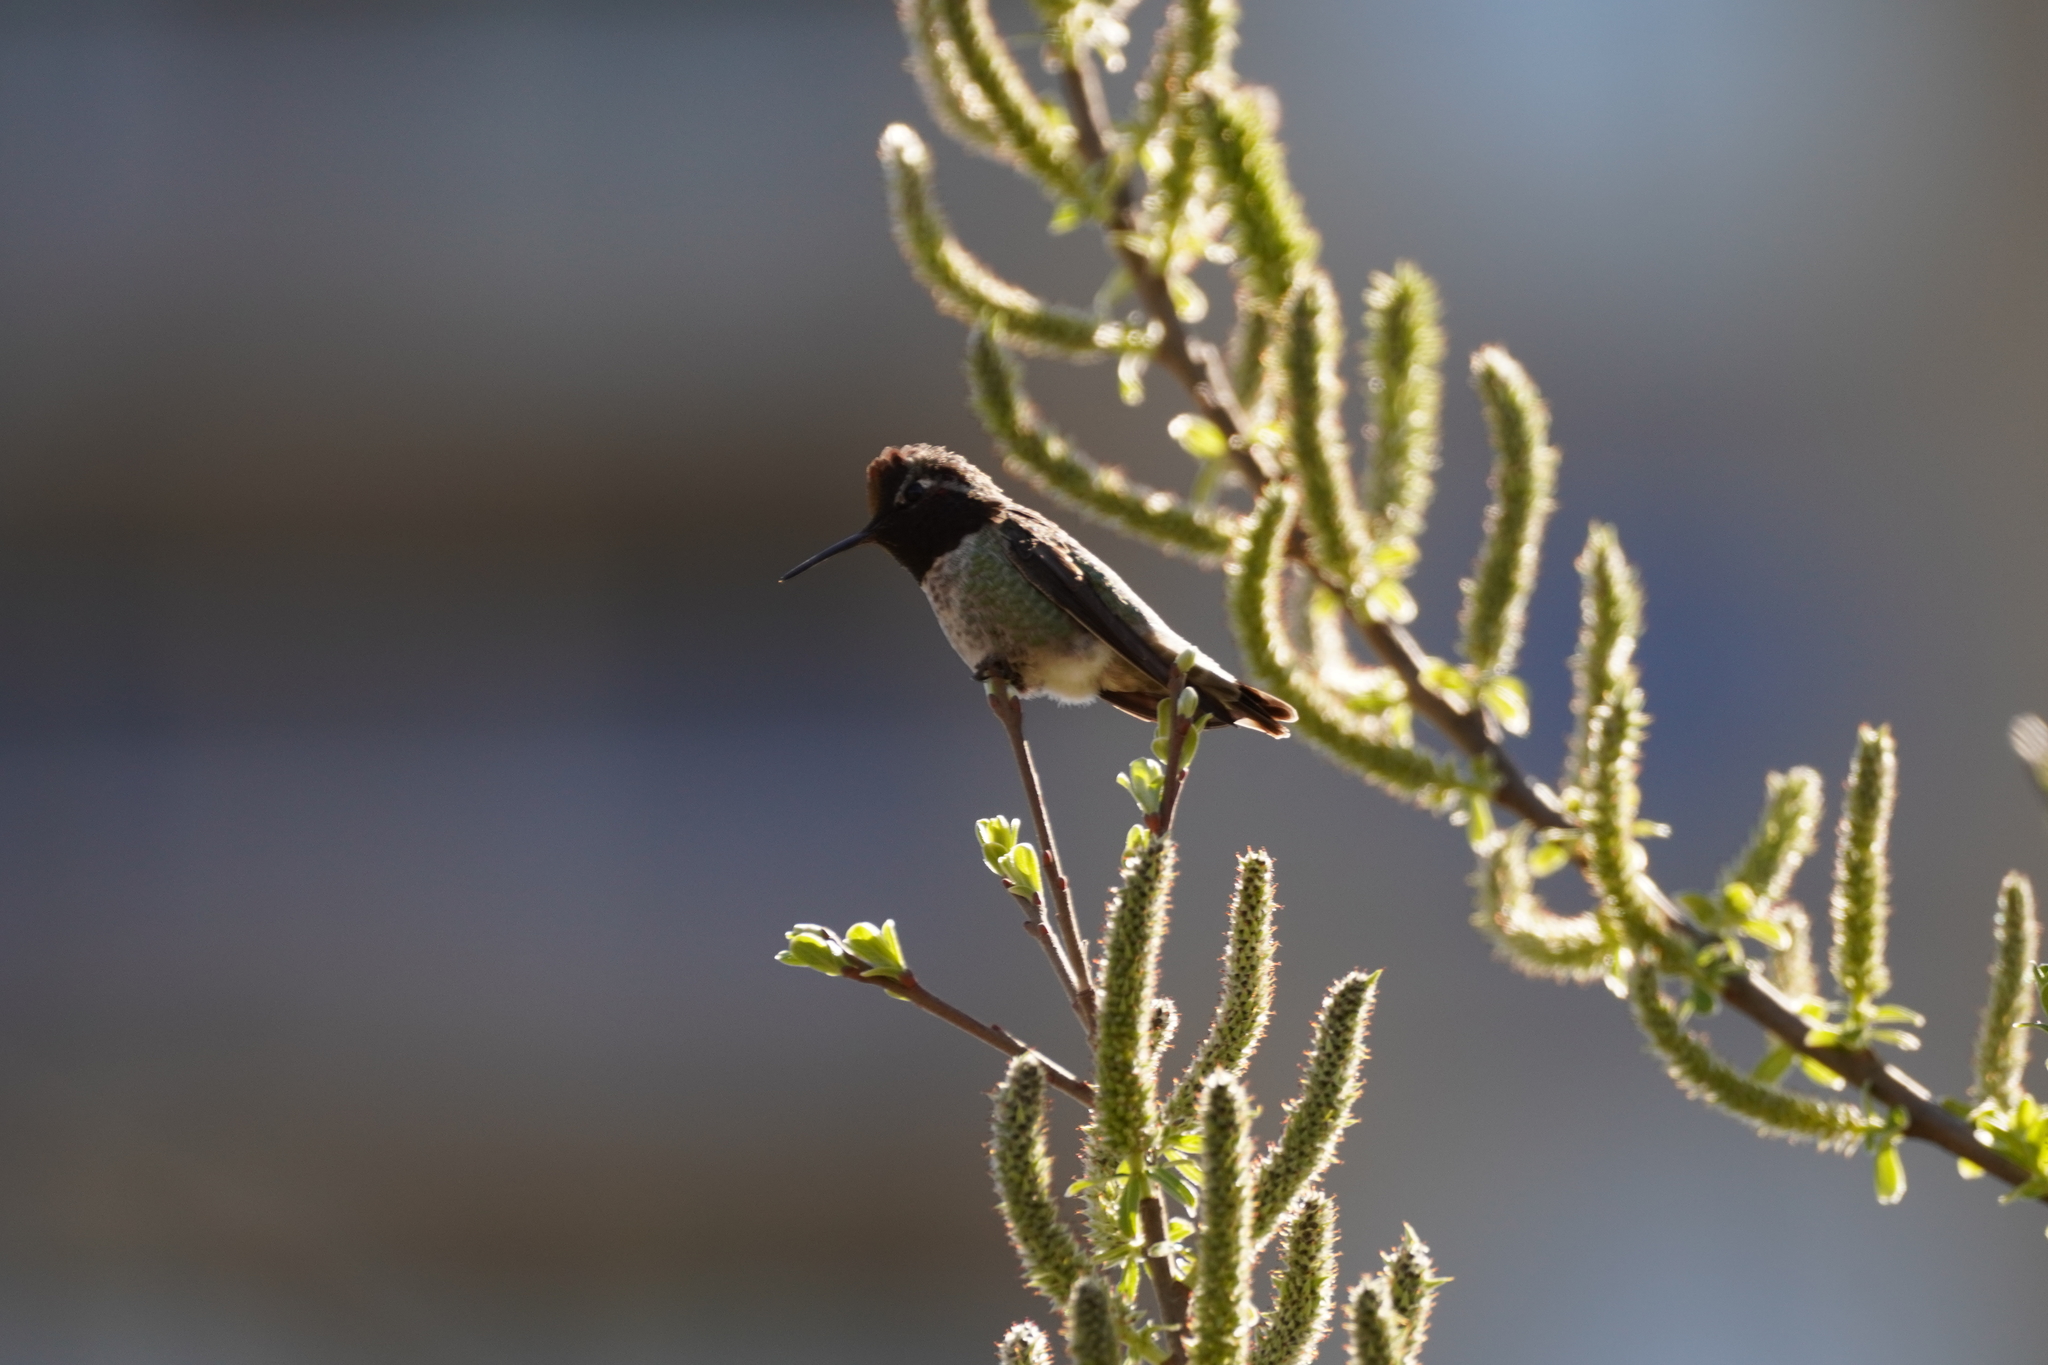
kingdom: Animalia
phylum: Chordata
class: Aves
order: Apodiformes
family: Trochilidae
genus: Calypte
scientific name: Calypte anna
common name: Anna's hummingbird
